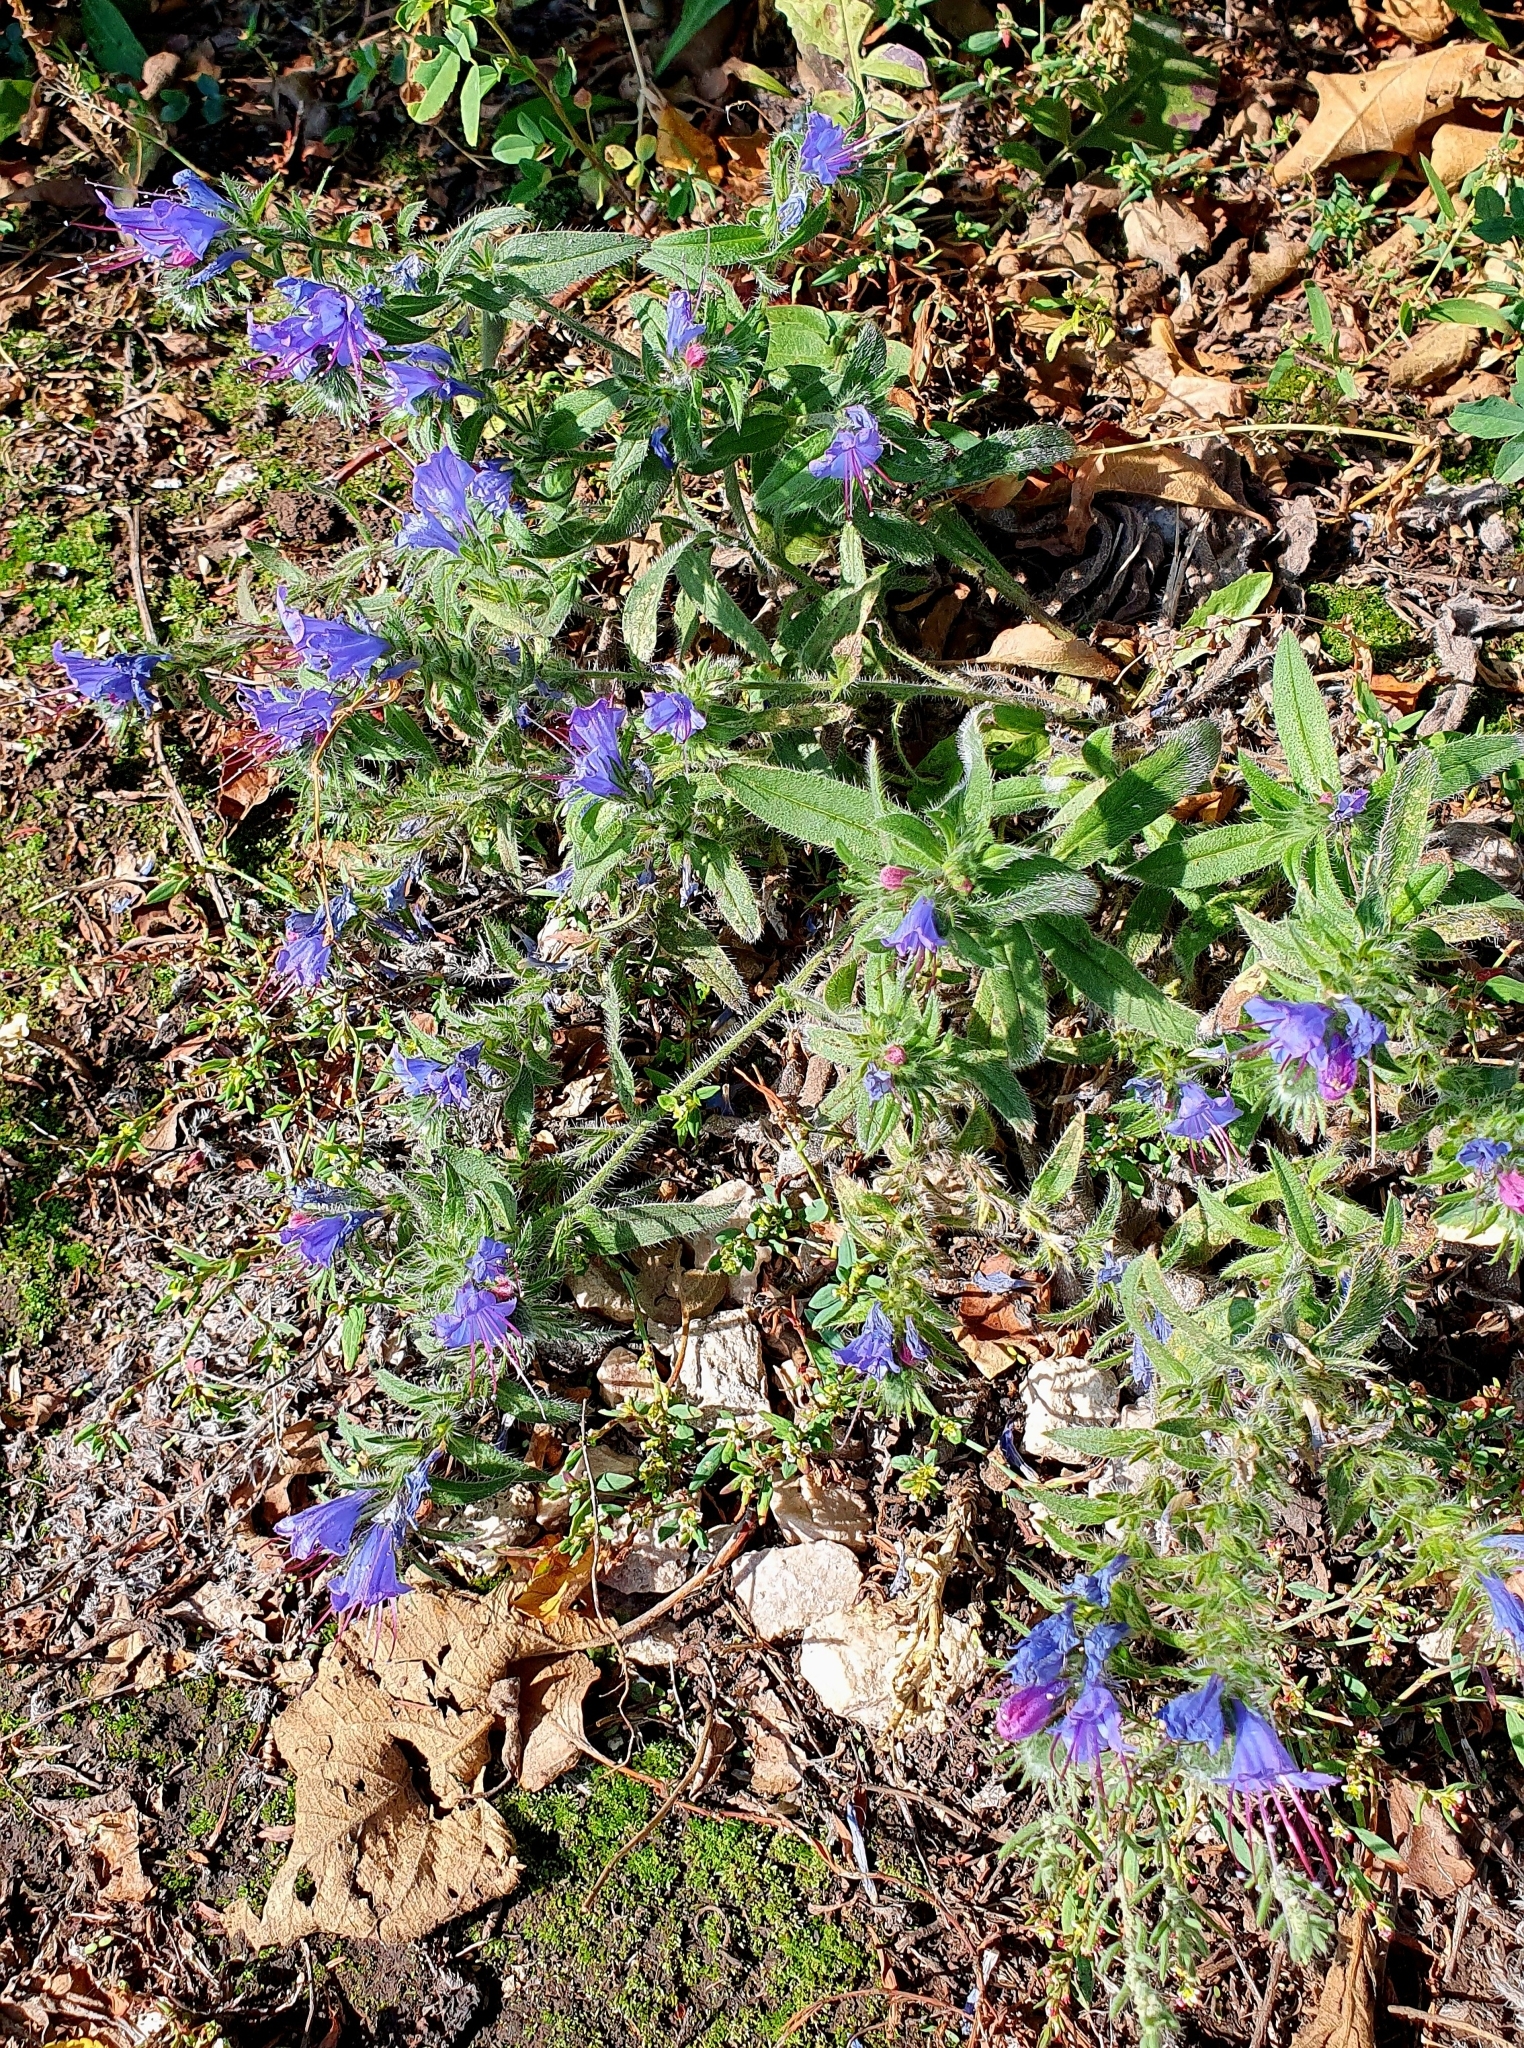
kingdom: Plantae
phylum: Tracheophyta
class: Magnoliopsida
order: Boraginales
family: Boraginaceae
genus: Echium
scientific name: Echium vulgare
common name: Common viper's bugloss
